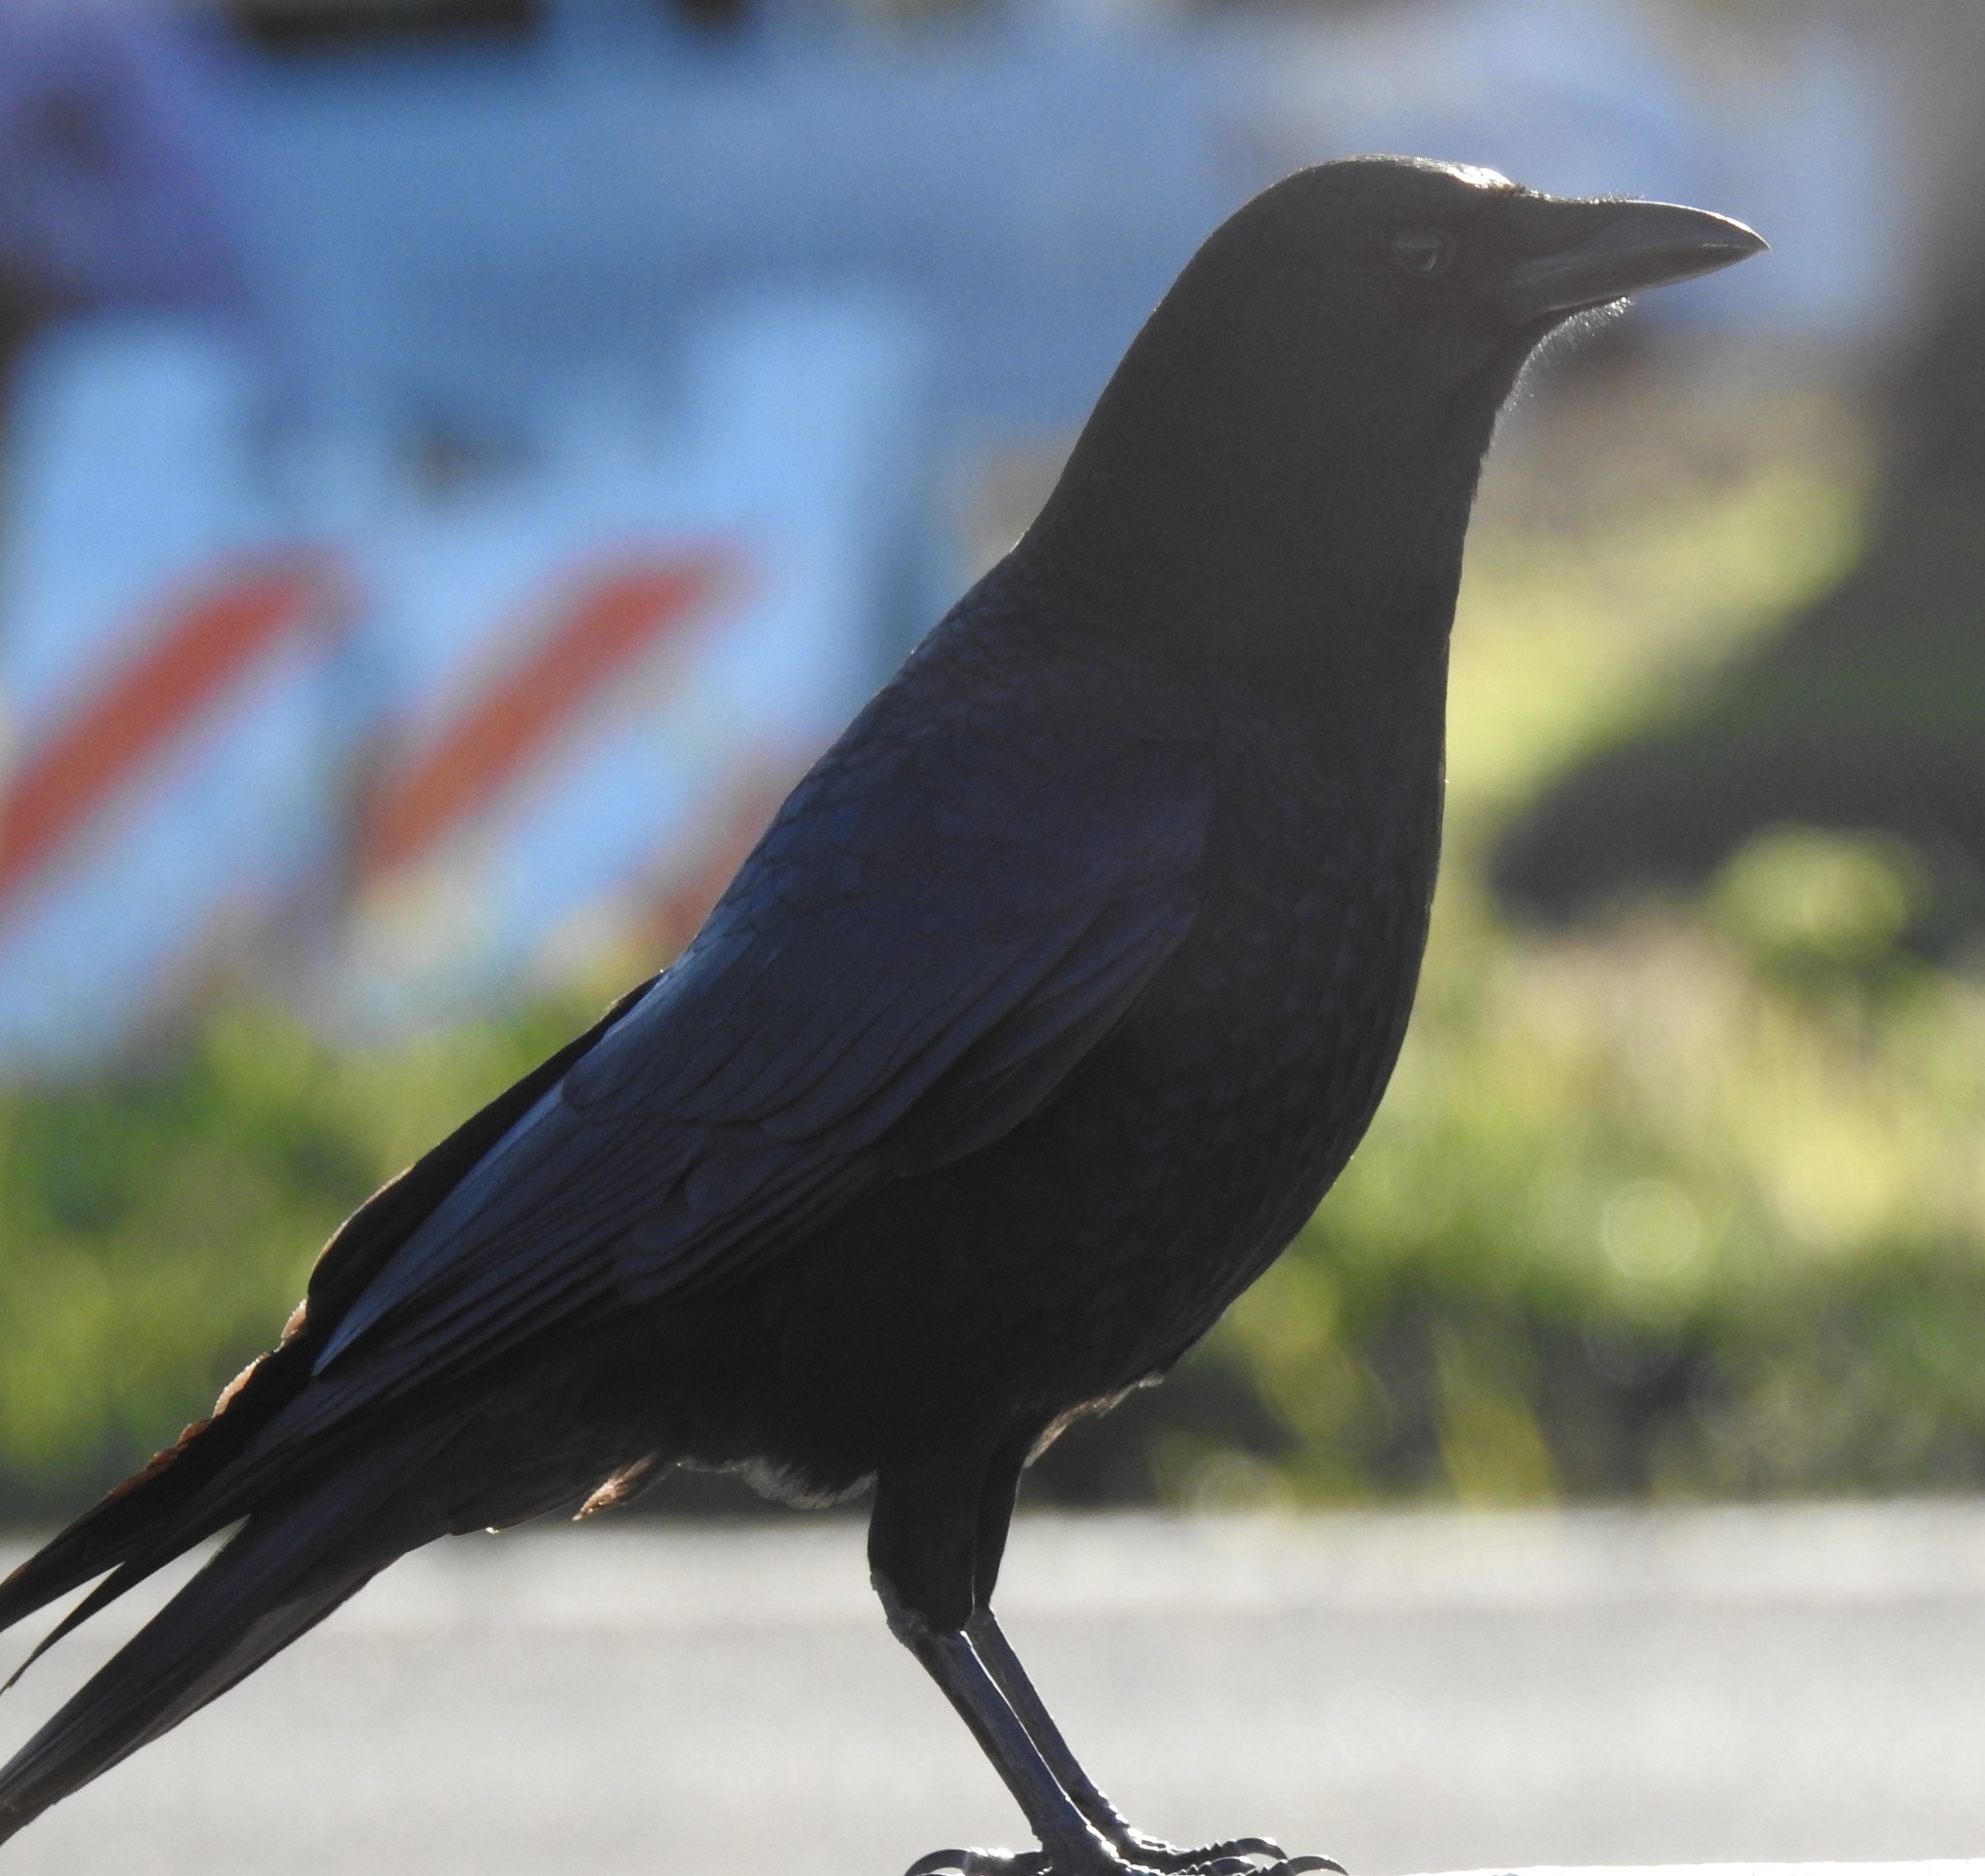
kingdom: Animalia
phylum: Chordata
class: Aves
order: Passeriformes
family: Corvidae
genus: Corvus
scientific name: Corvus brachyrhynchos
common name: American crow
